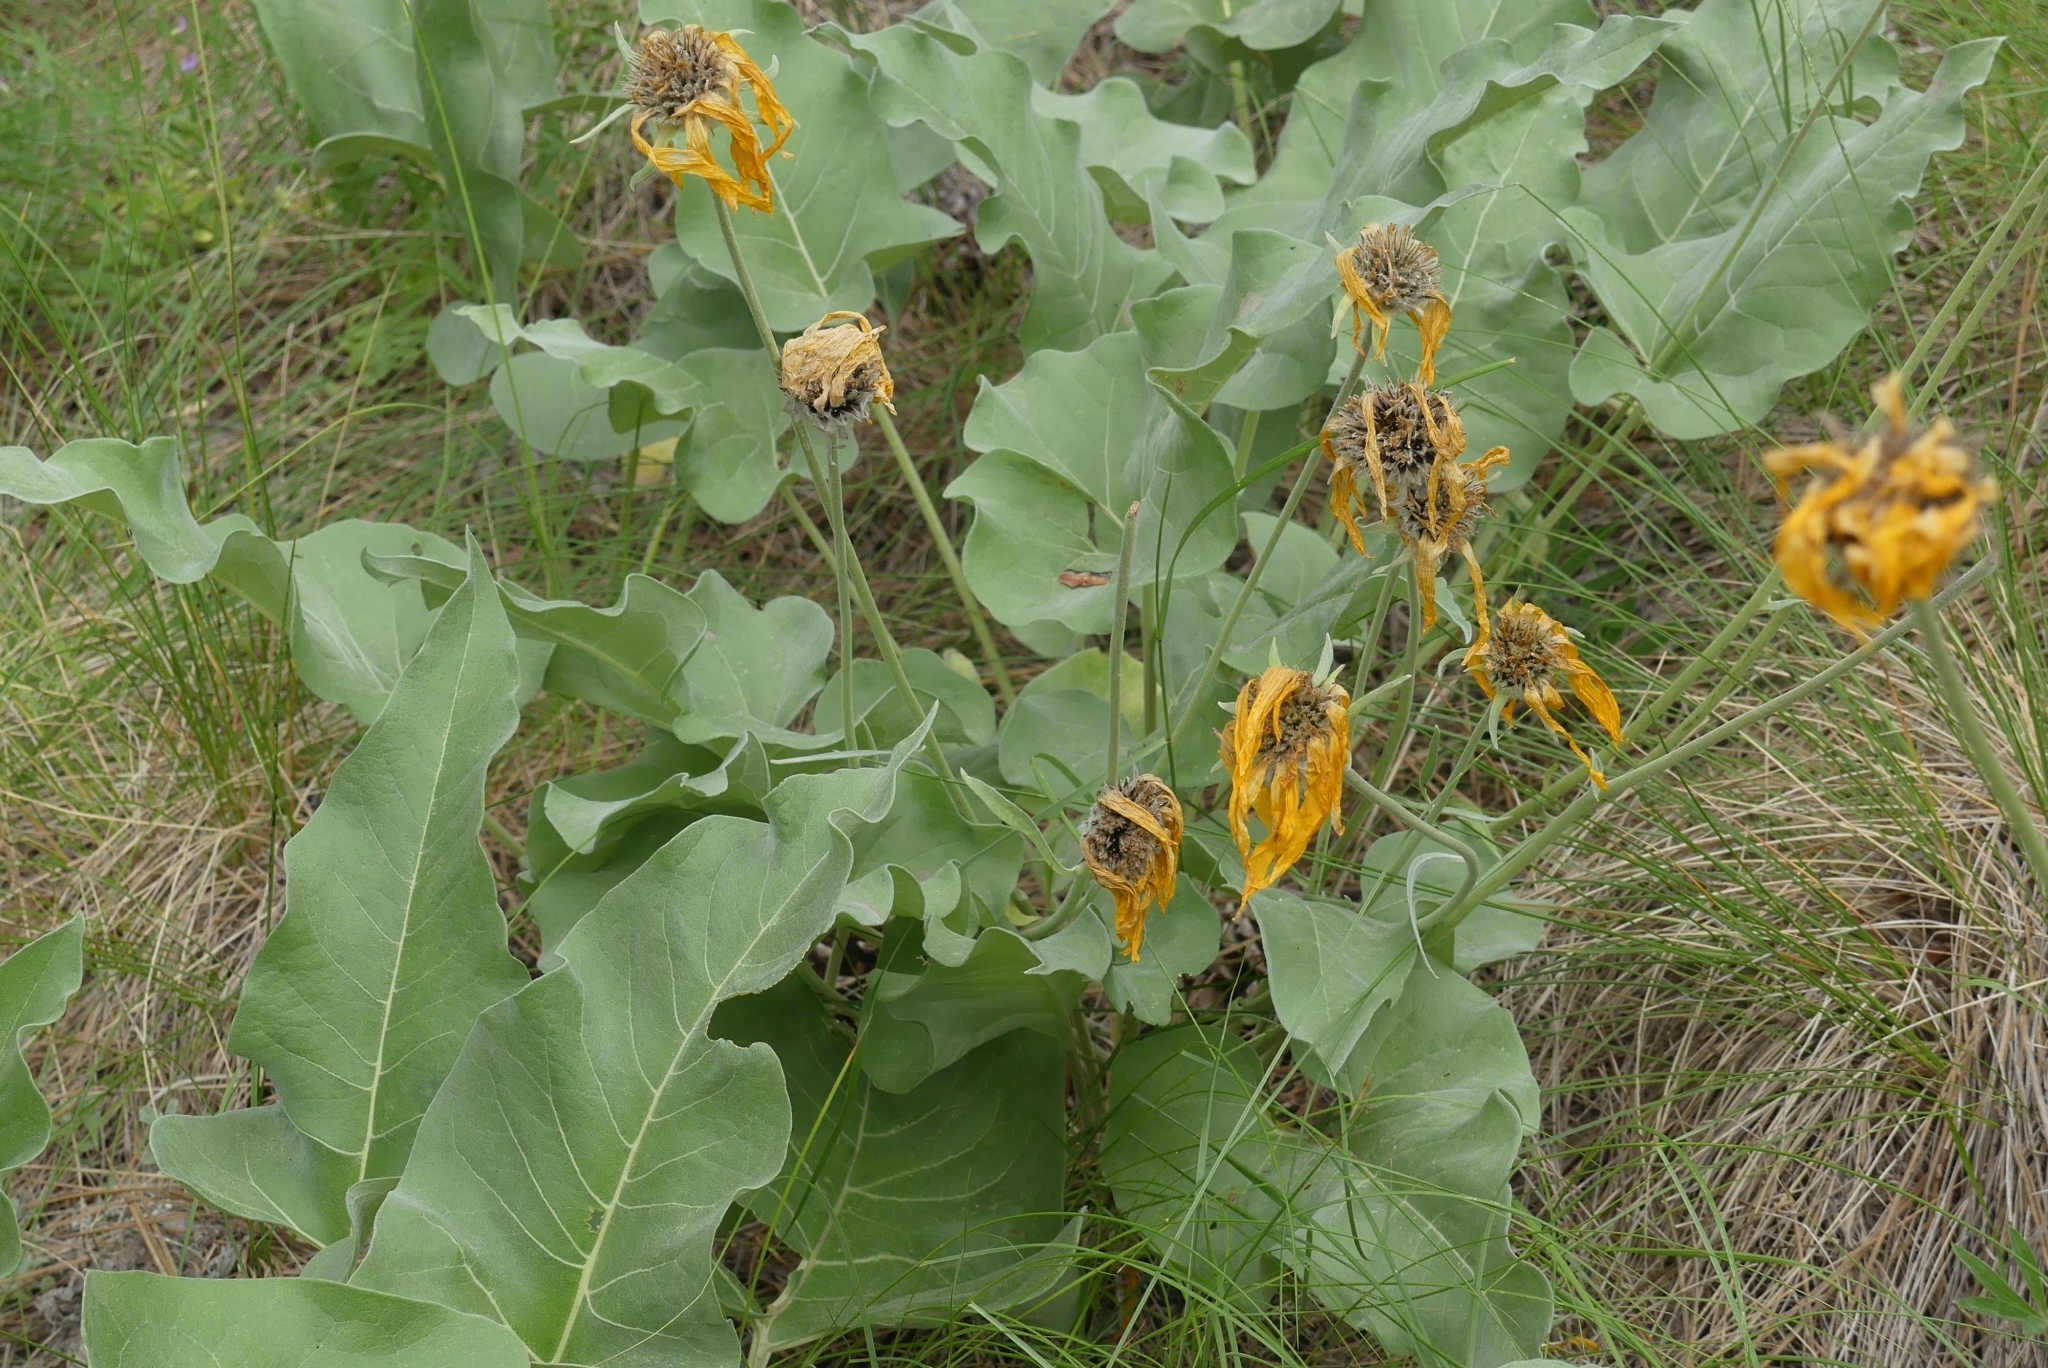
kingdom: Plantae
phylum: Tracheophyta
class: Magnoliopsida
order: Asterales
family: Asteraceae
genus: Wyethia
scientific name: Wyethia sagittata
